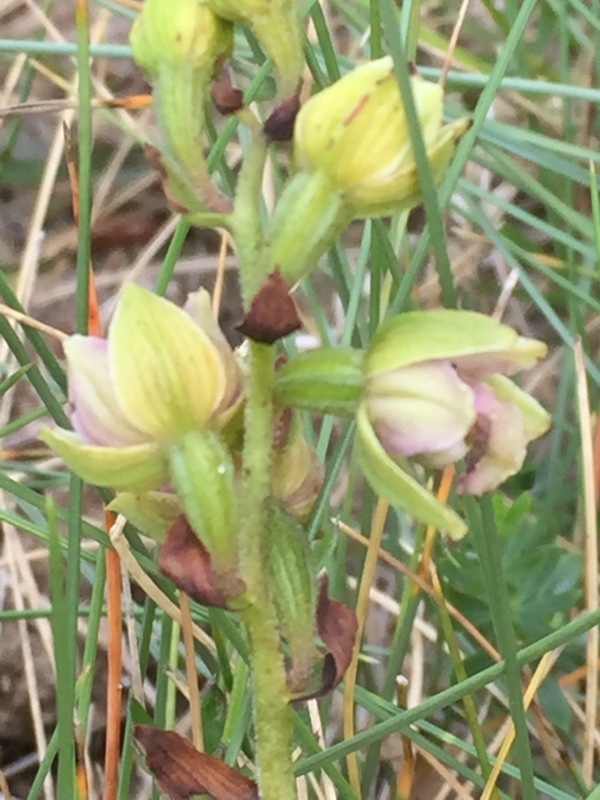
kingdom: Plantae
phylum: Tracheophyta
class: Liliopsida
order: Asparagales
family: Orchidaceae
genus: Epipactis
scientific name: Epipactis palustris
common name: Marsh helleborine
